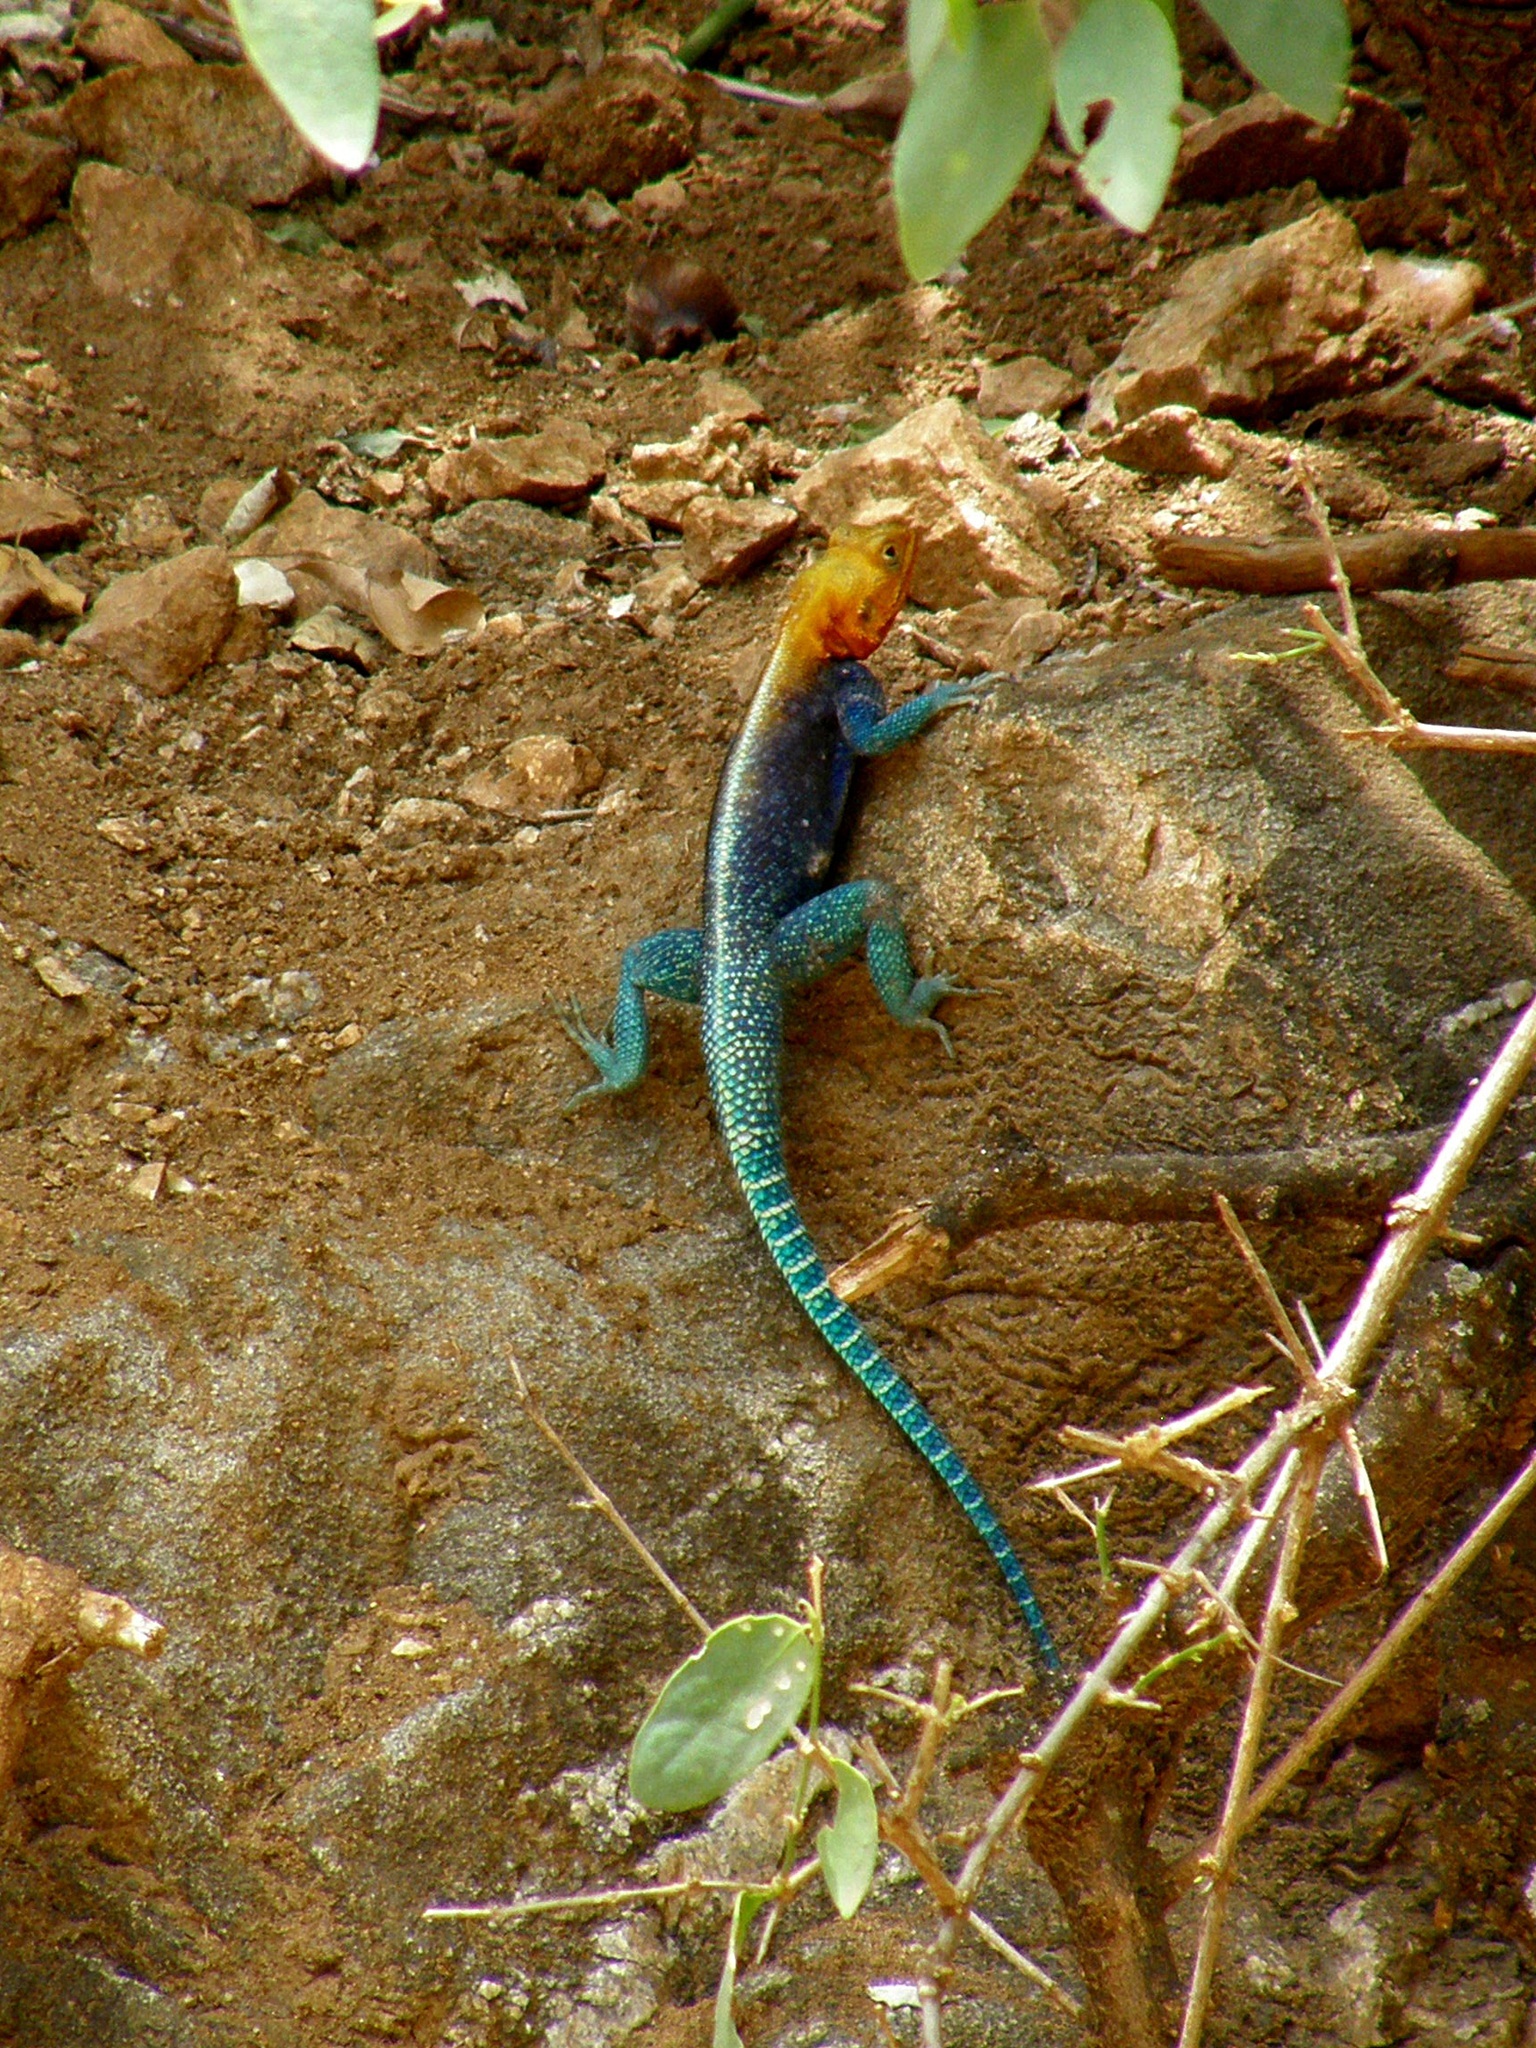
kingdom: Animalia
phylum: Chordata
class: Squamata
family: Agamidae
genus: Agama
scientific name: Agama lionotus
